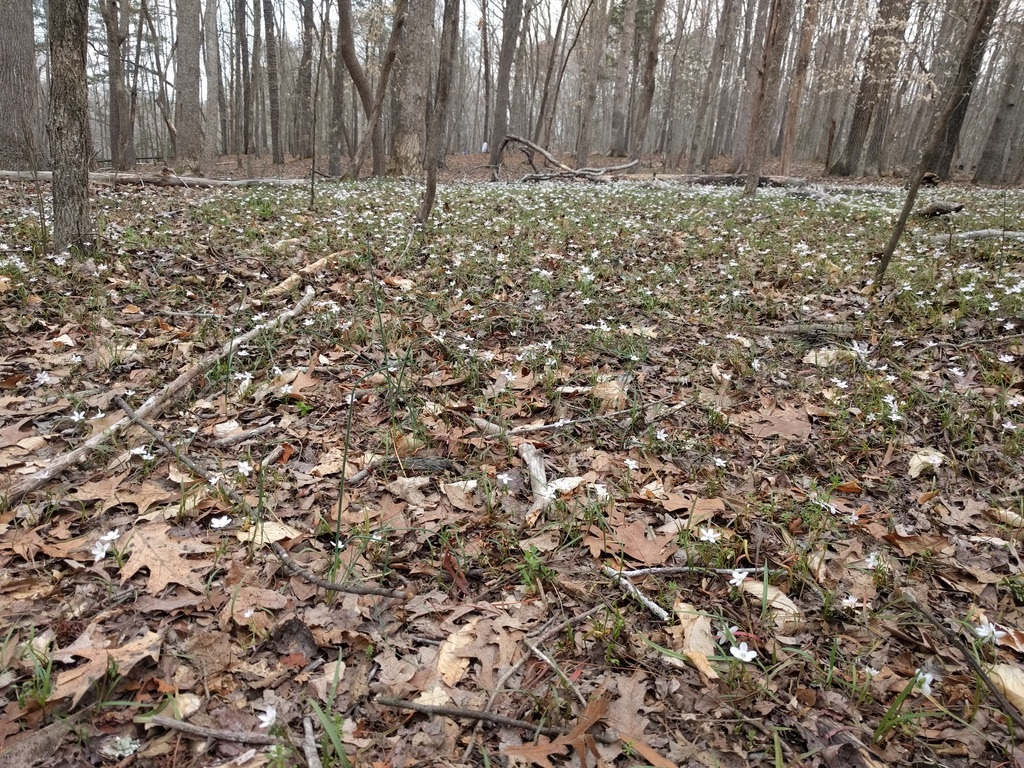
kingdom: Plantae
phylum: Tracheophyta
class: Magnoliopsida
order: Caryophyllales
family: Montiaceae
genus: Claytonia
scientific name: Claytonia virginica
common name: Virginia springbeauty
